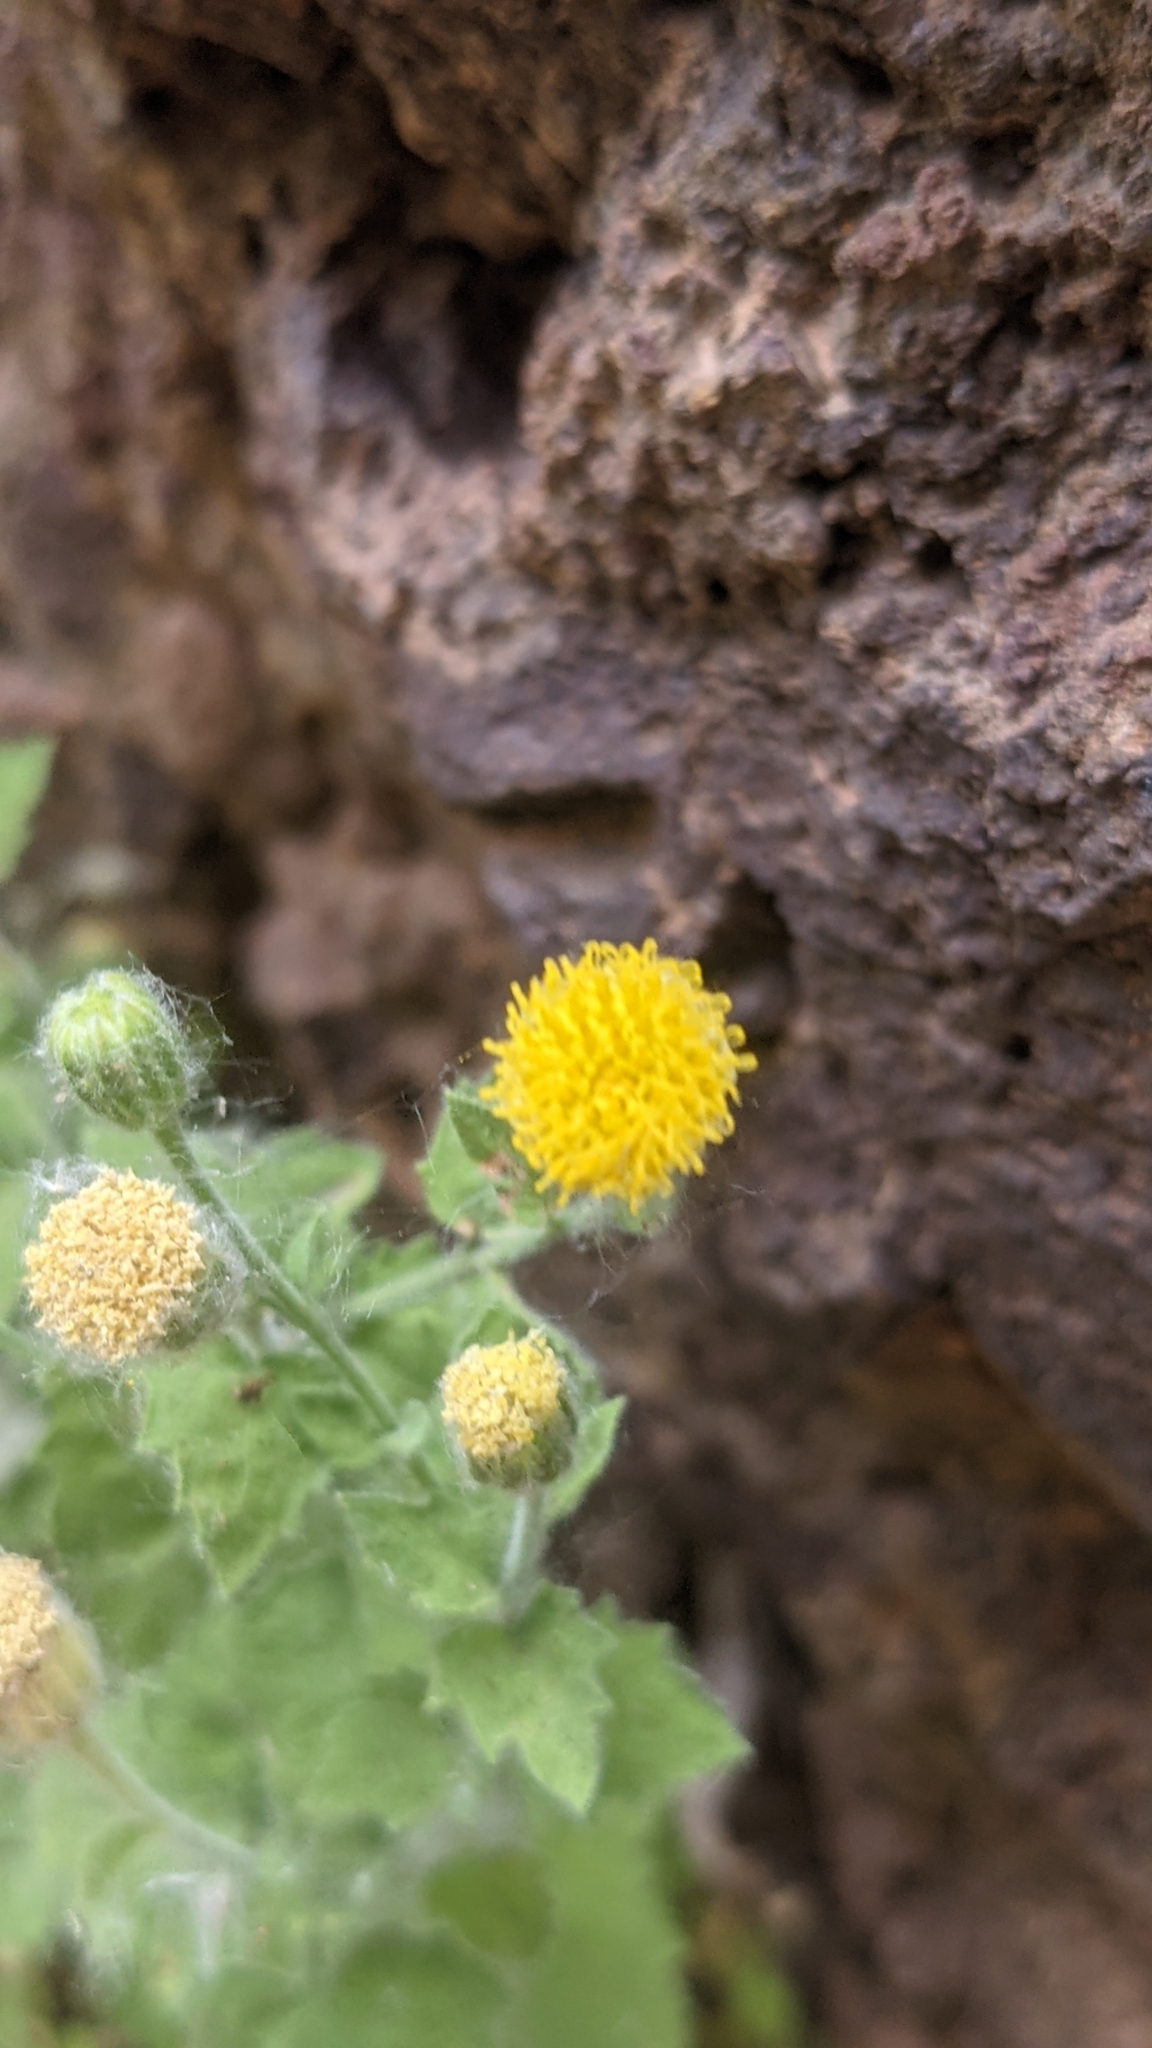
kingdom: Plantae
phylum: Tracheophyta
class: Magnoliopsida
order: Asterales
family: Asteraceae
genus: Laphamia
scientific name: Laphamia sanchezii
